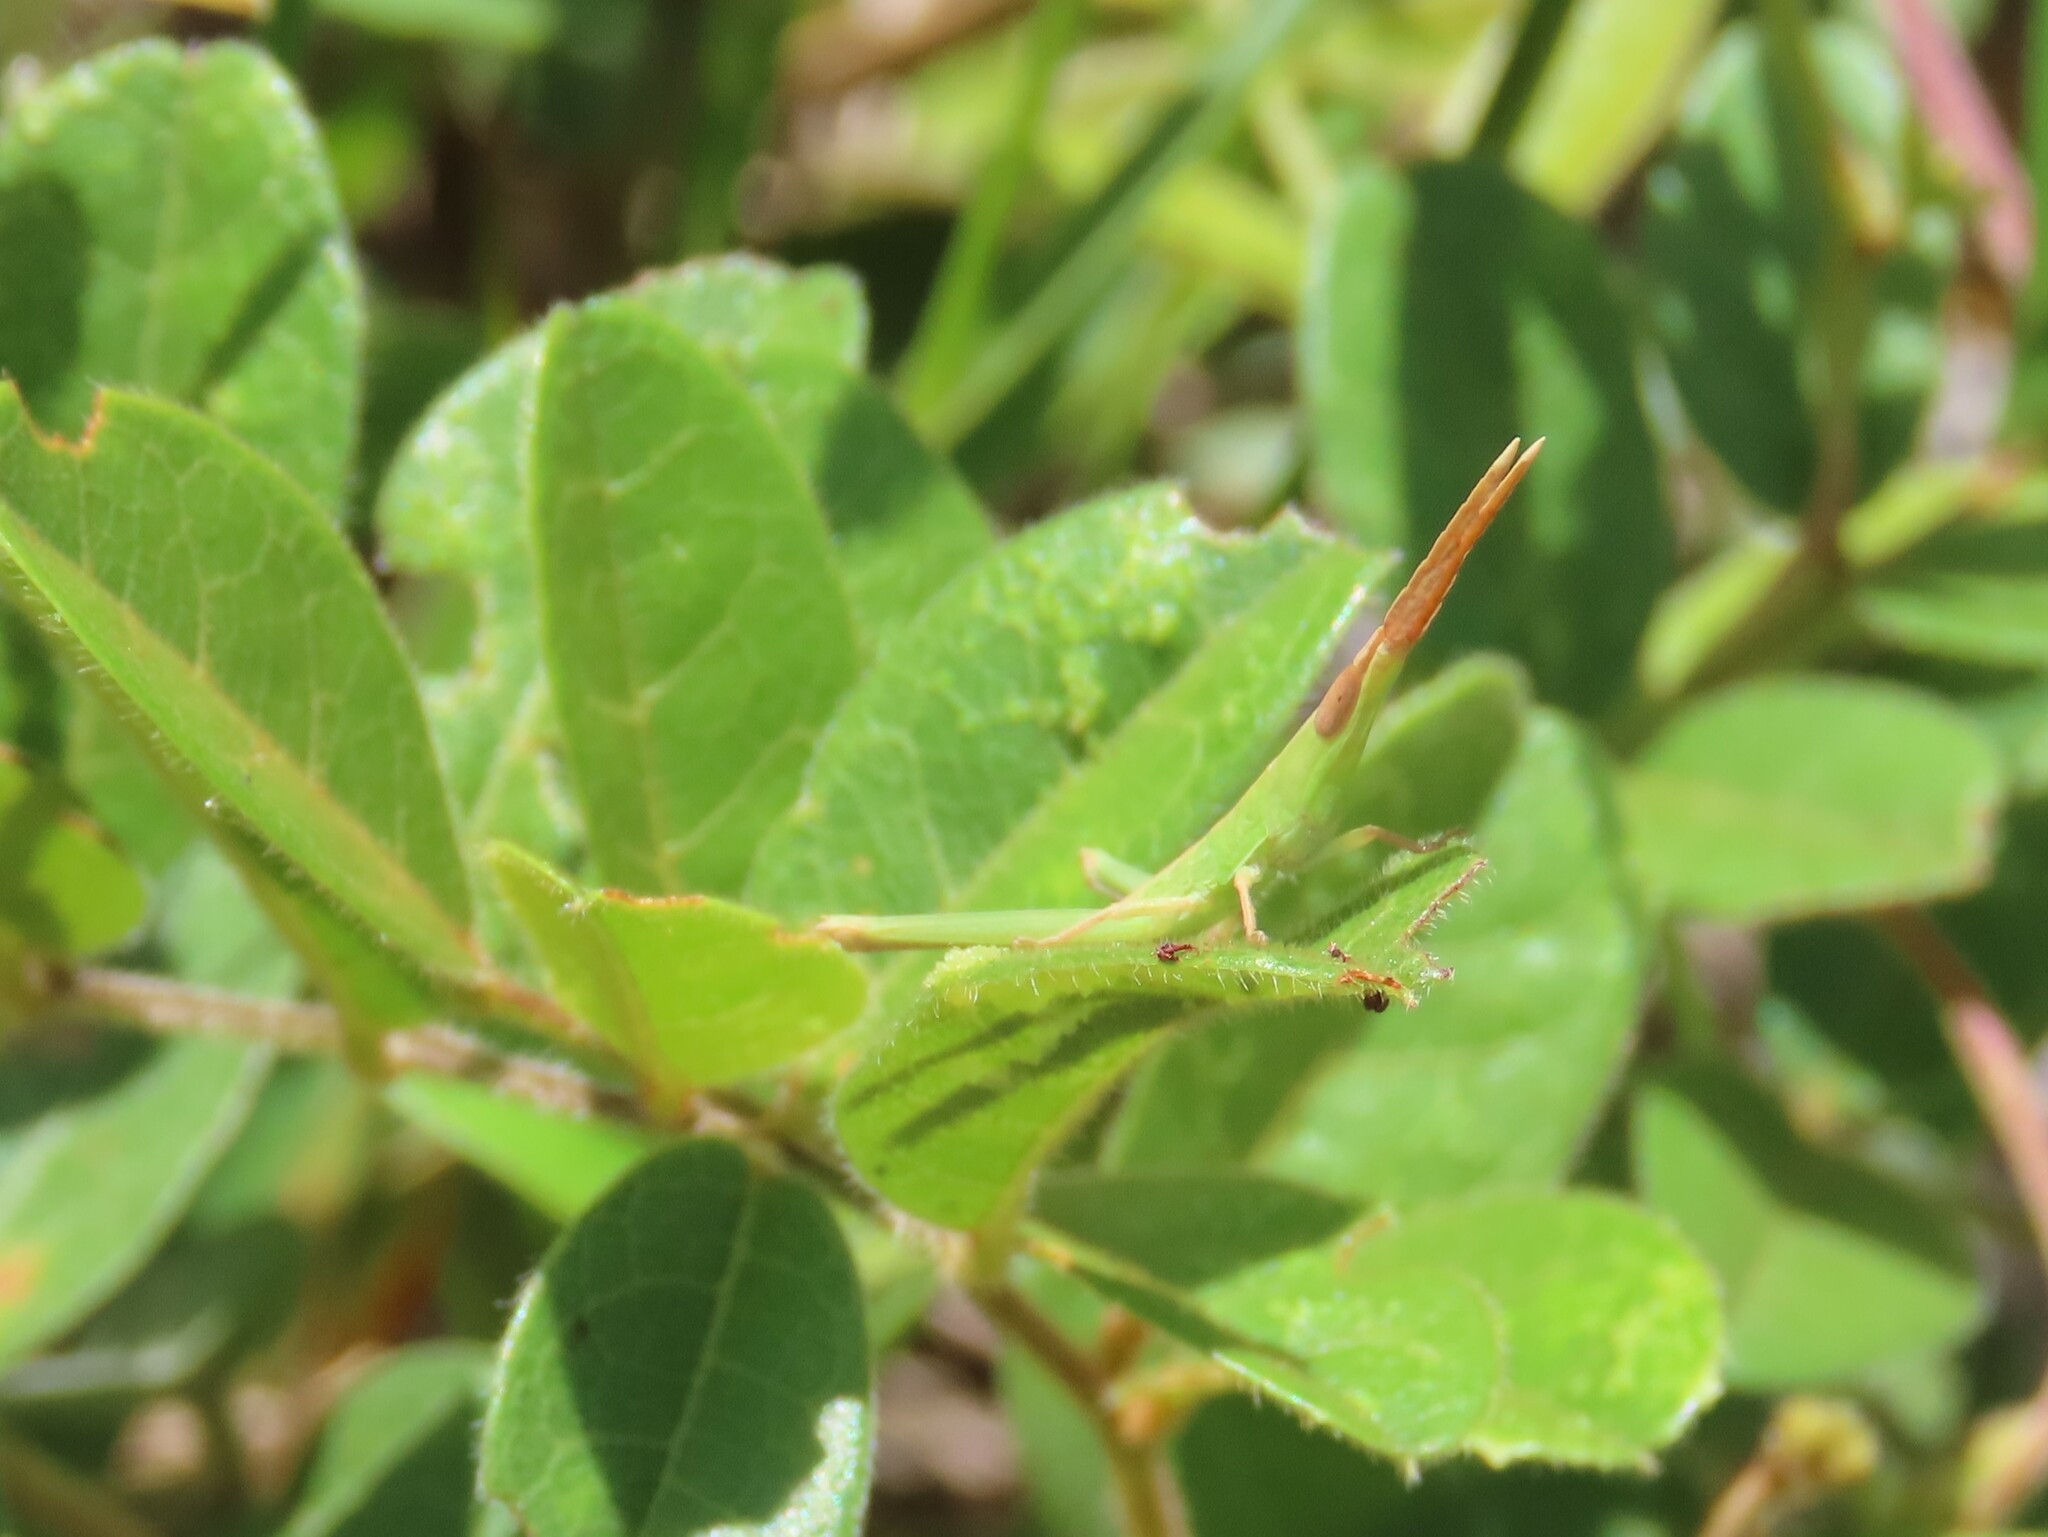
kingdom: Animalia
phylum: Arthropoda
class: Insecta
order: Orthoptera
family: Acrididae
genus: Achurum
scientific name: Achurum carinatum
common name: Long-headed toothpick grasshopper
